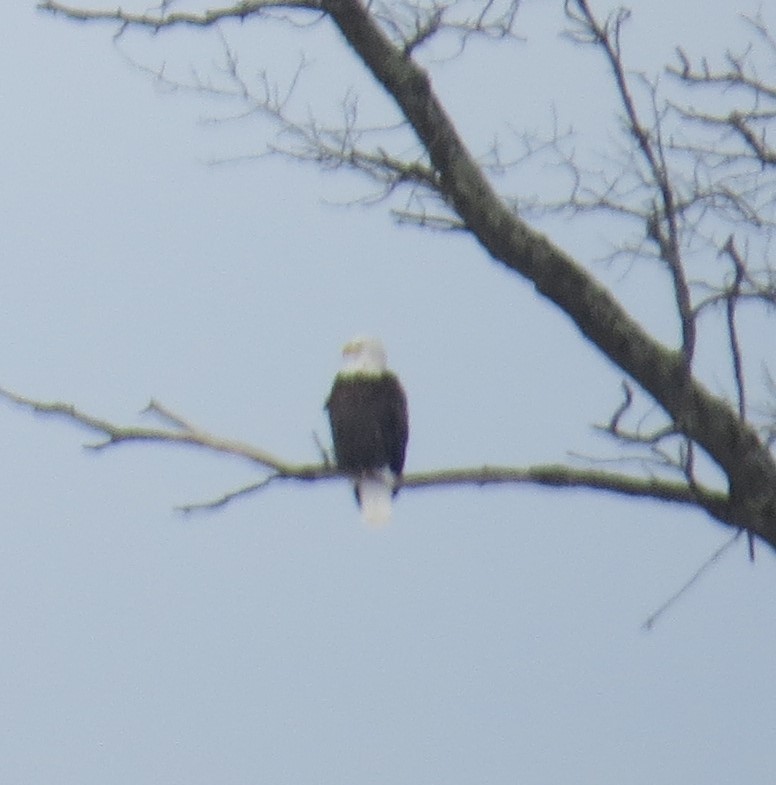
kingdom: Animalia
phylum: Chordata
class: Aves
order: Accipitriformes
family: Accipitridae
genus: Haliaeetus
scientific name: Haliaeetus leucocephalus
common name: Bald eagle
